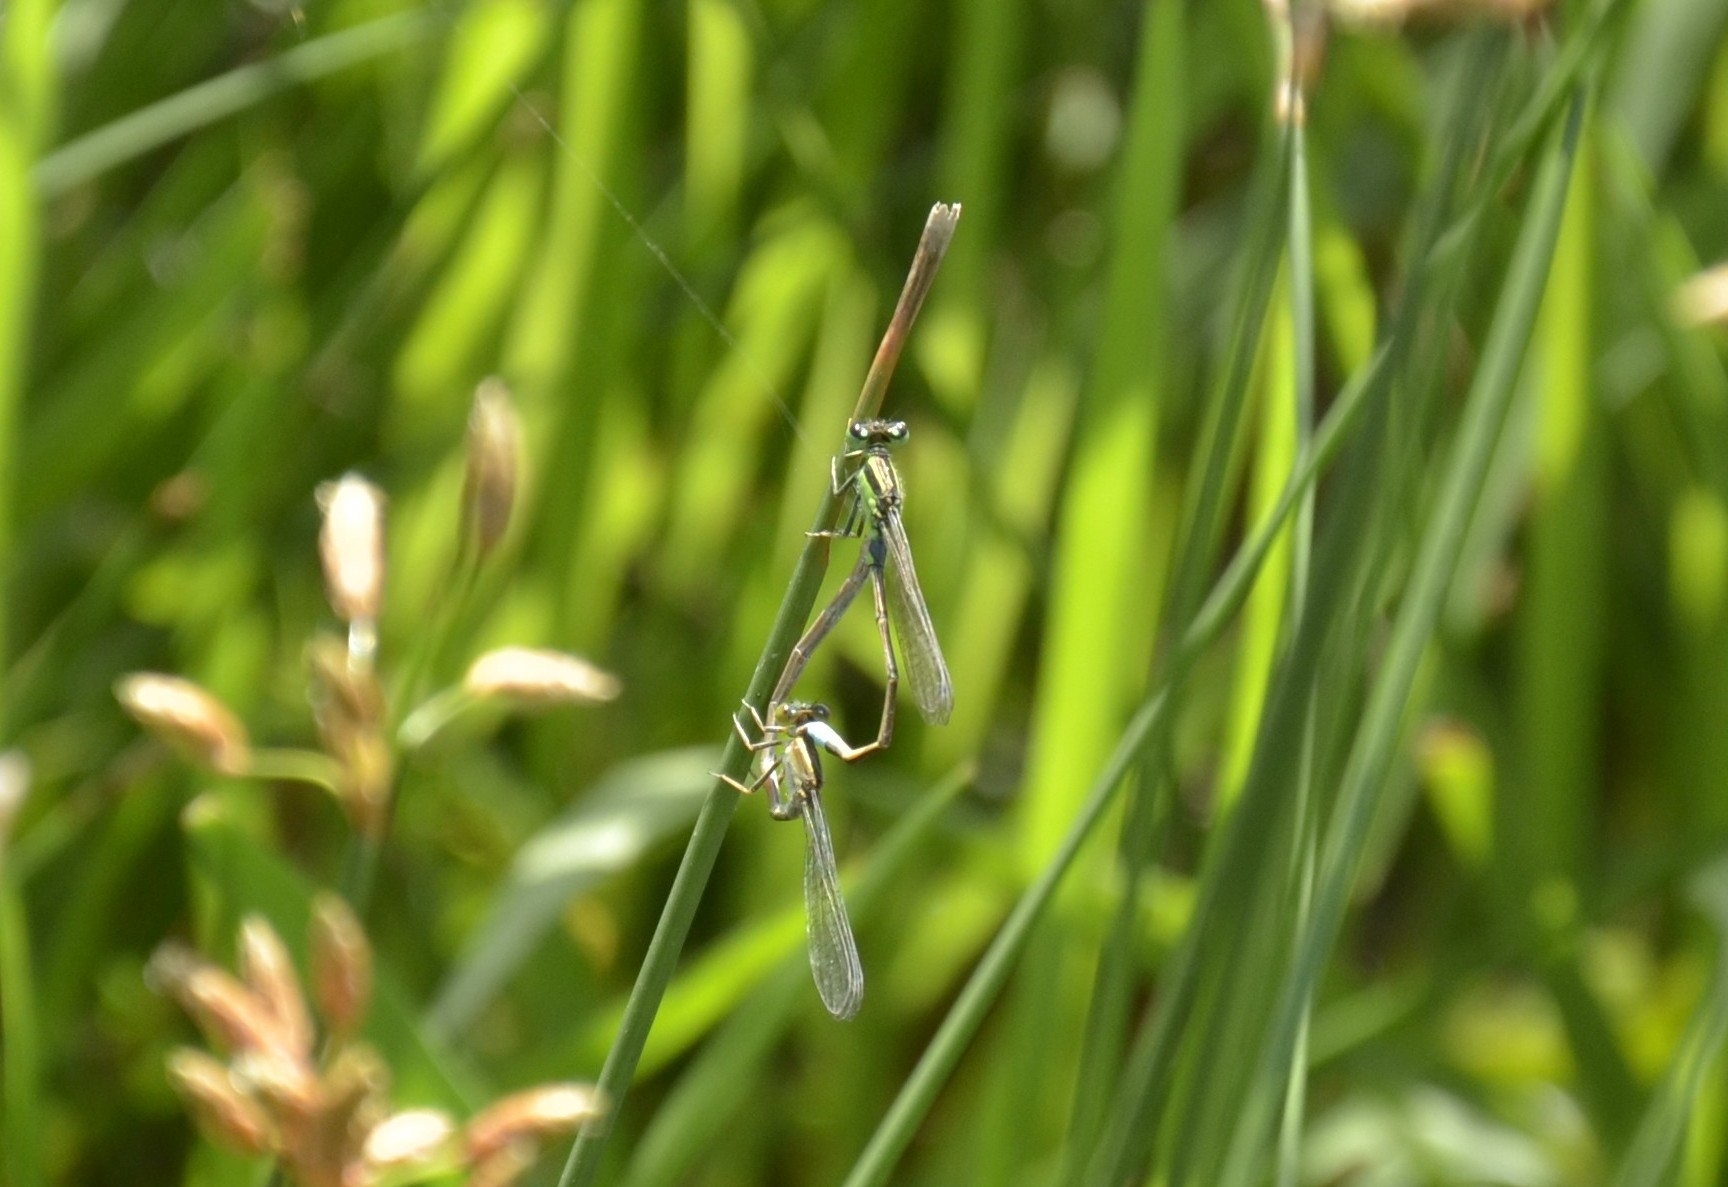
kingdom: Animalia
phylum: Arthropoda
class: Insecta
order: Odonata
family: Coenagrionidae
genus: Ischnura
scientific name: Ischnura senegalensis
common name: Tropical bluetail
